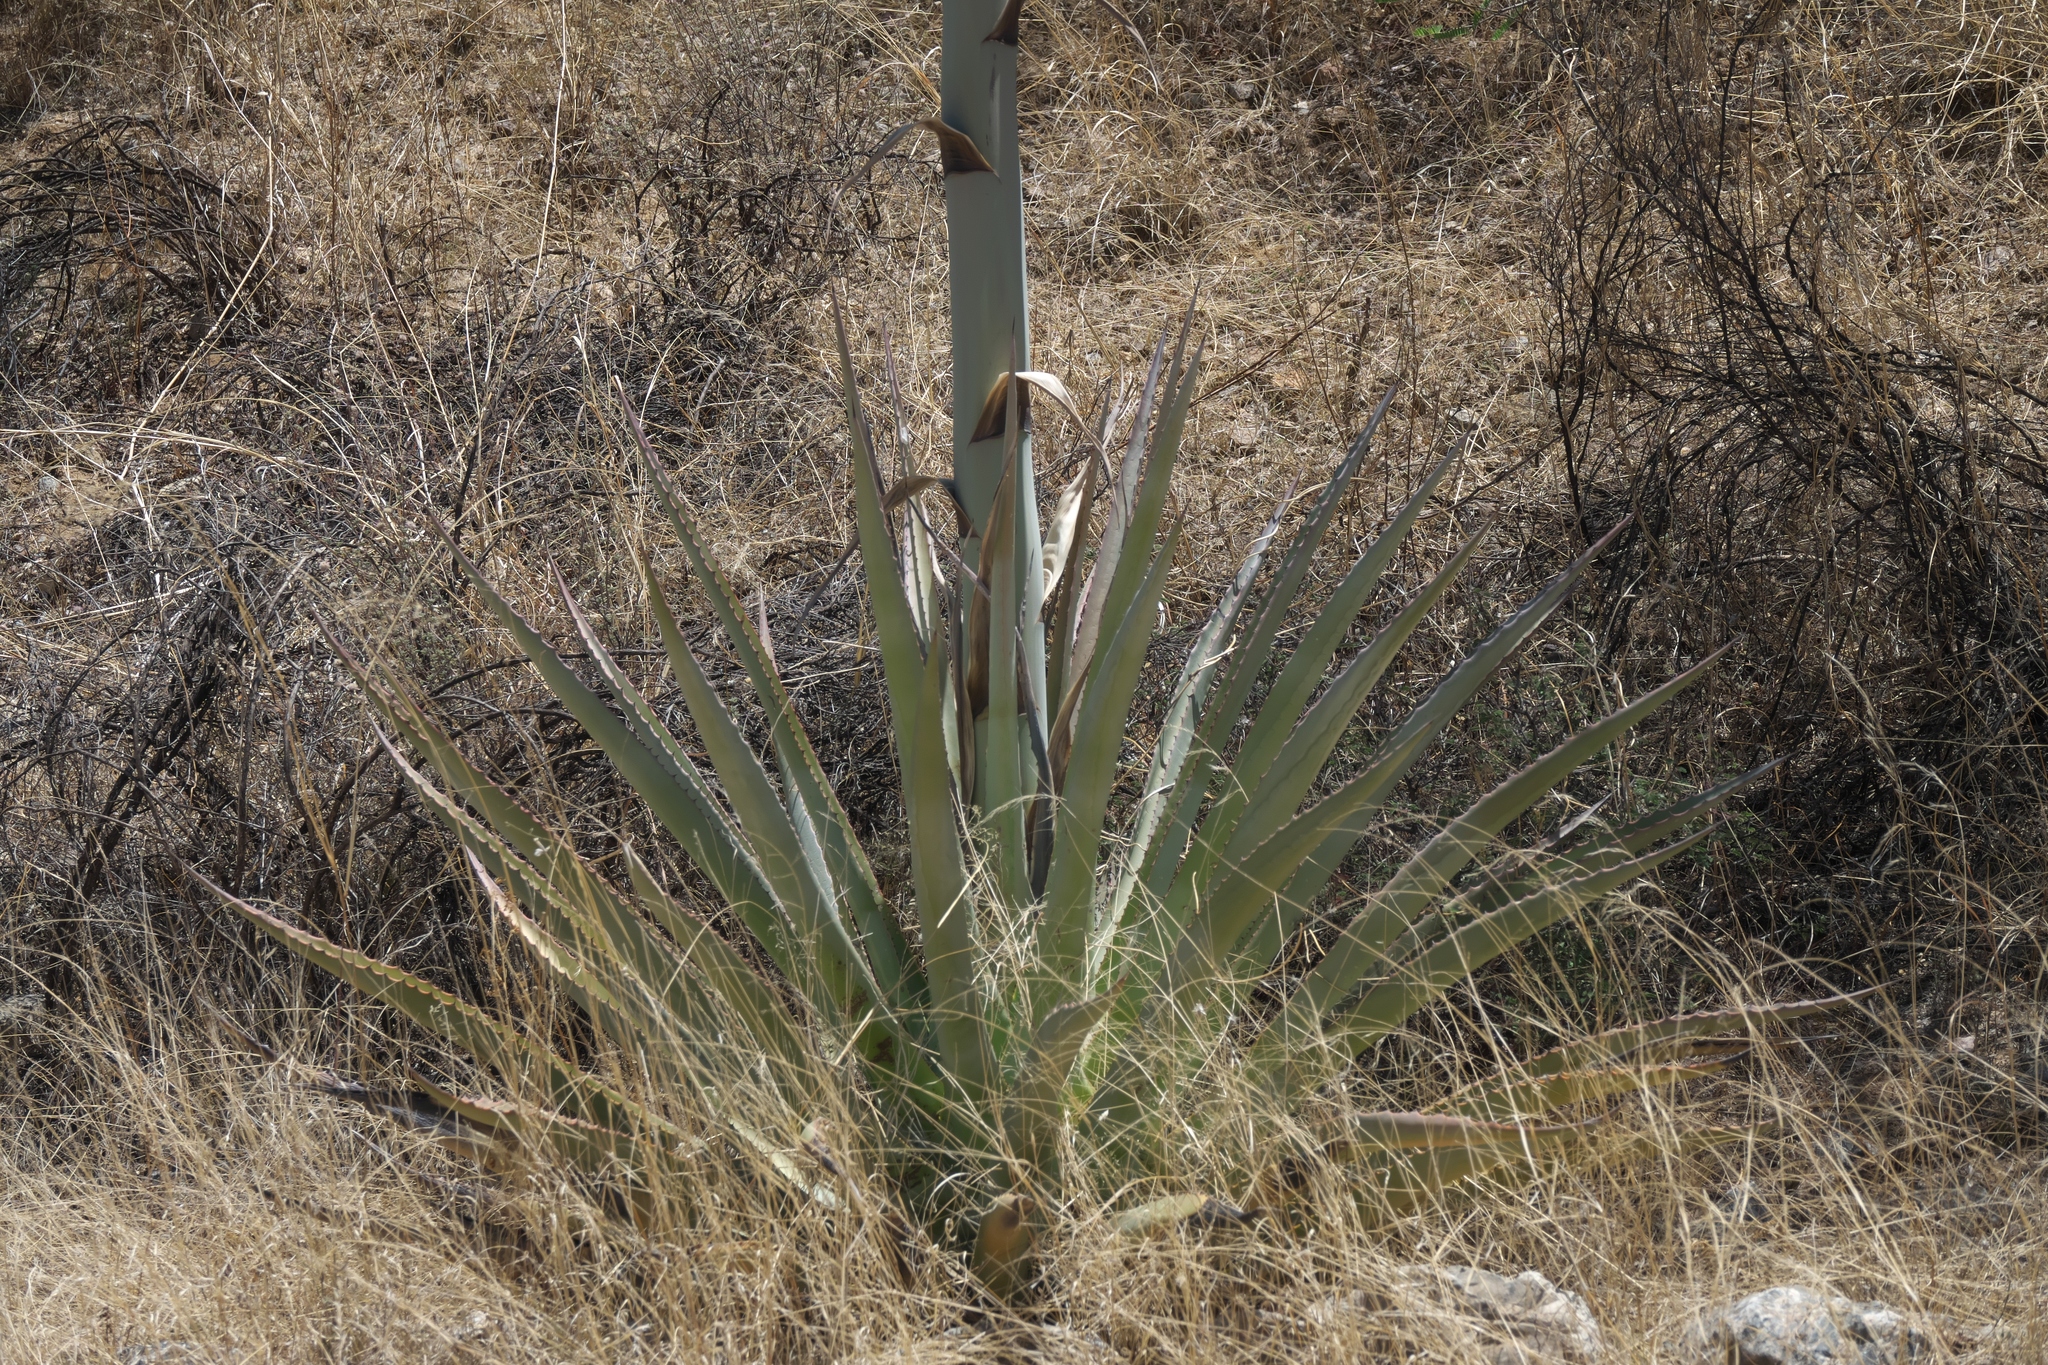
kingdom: Plantae
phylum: Tracheophyta
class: Liliopsida
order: Asparagales
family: Asparagaceae
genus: Agave
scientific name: Agave palmeri
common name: Palmer agave
